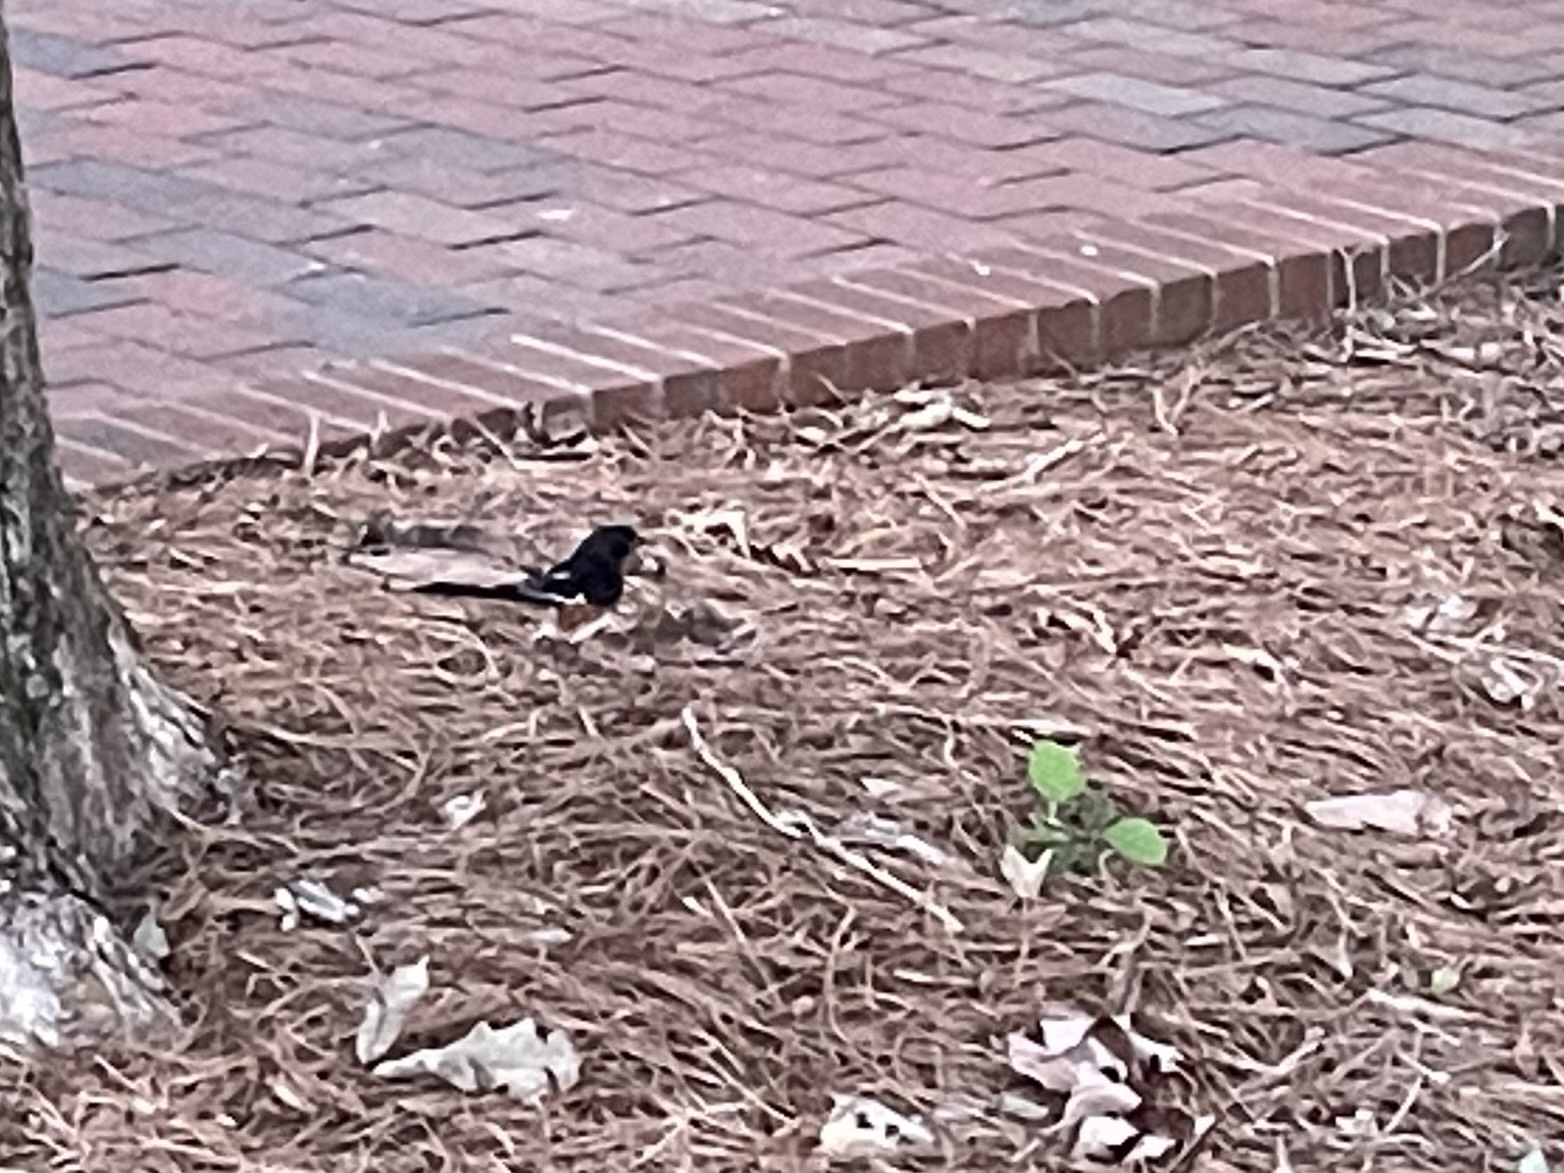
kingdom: Animalia
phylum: Chordata
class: Aves
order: Passeriformes
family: Passerellidae
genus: Pipilo
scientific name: Pipilo erythrophthalmus
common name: Eastern towhee
